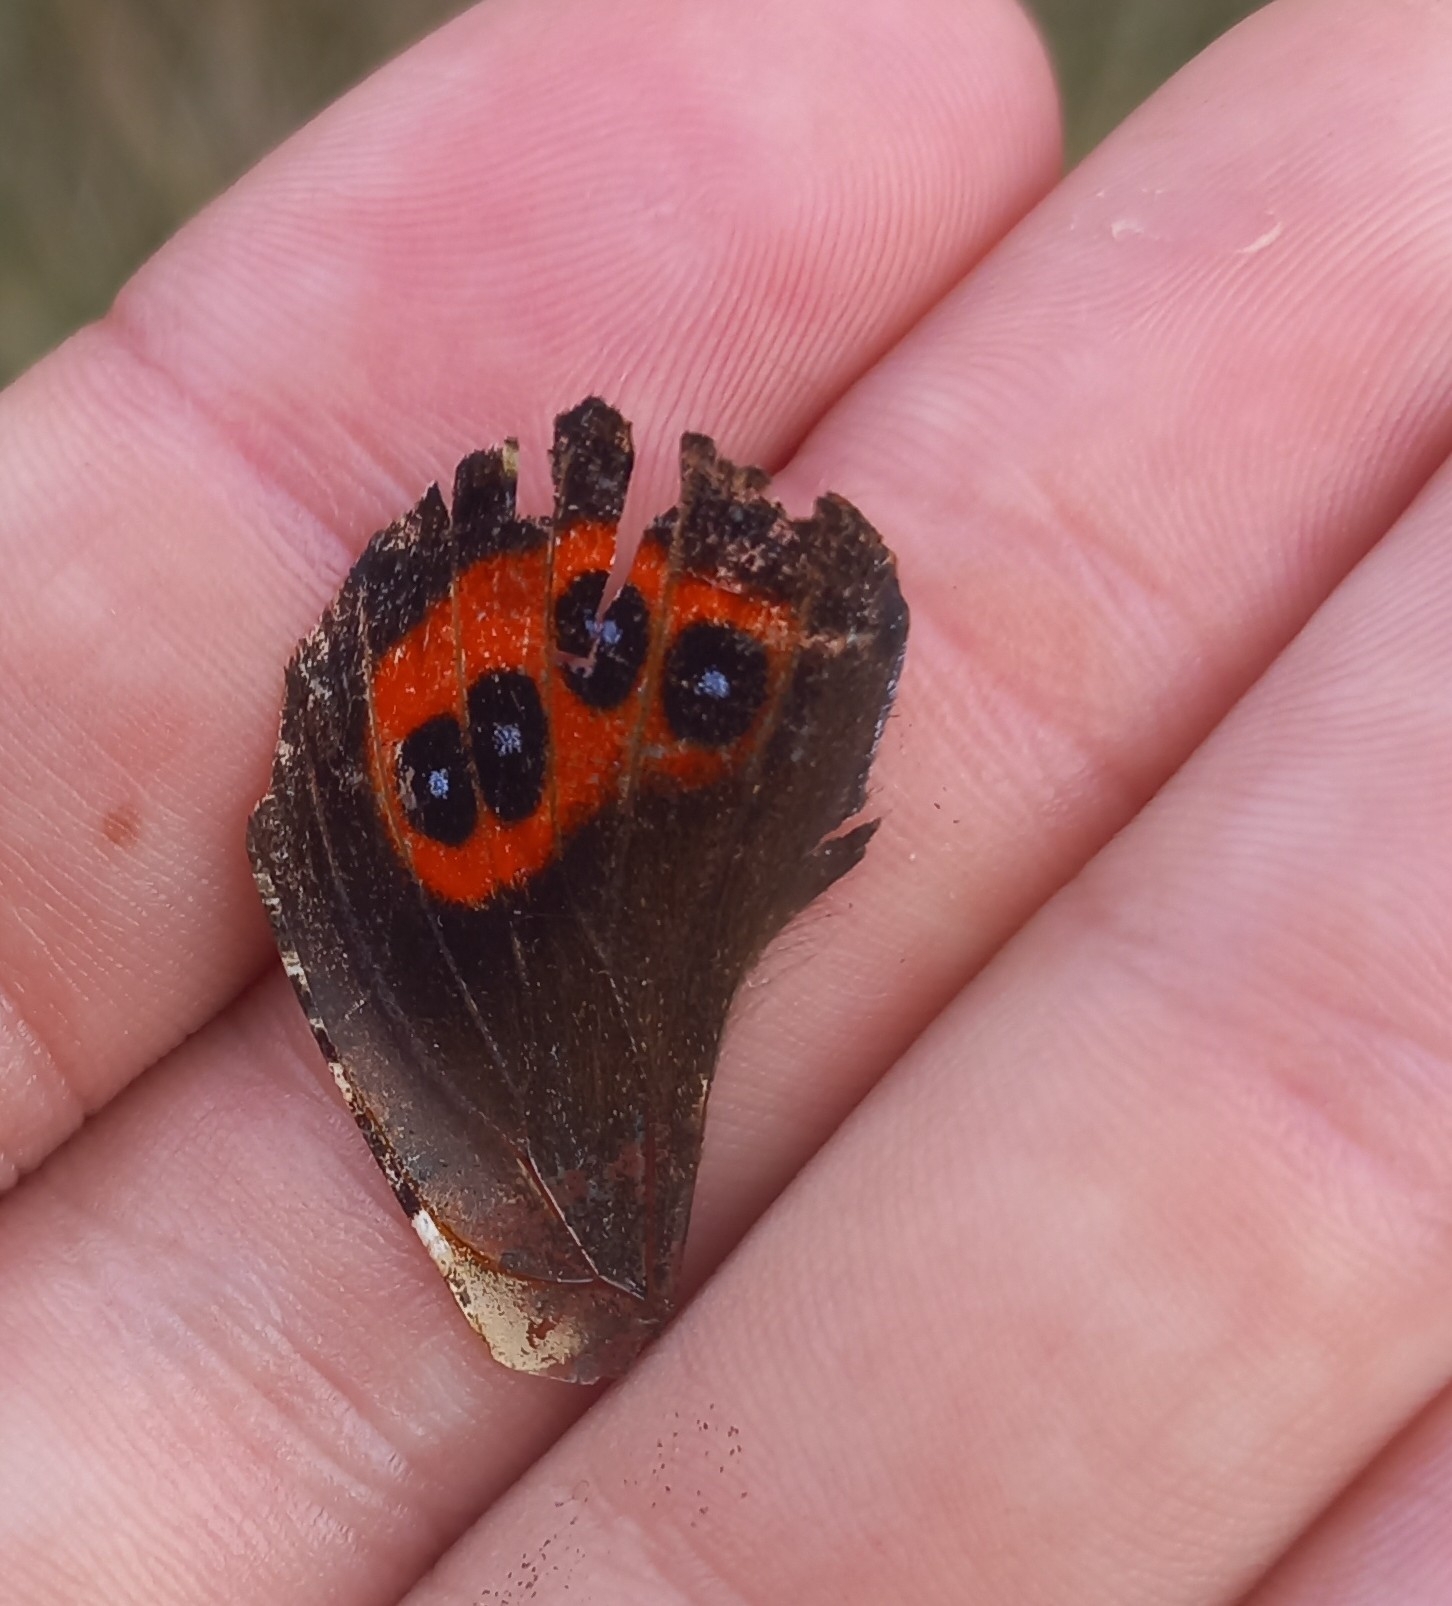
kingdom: Animalia
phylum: Arthropoda
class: Insecta
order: Lepidoptera
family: Nymphalidae
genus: Vanessa
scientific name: Vanessa gonerilla
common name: New zealand red admiral
